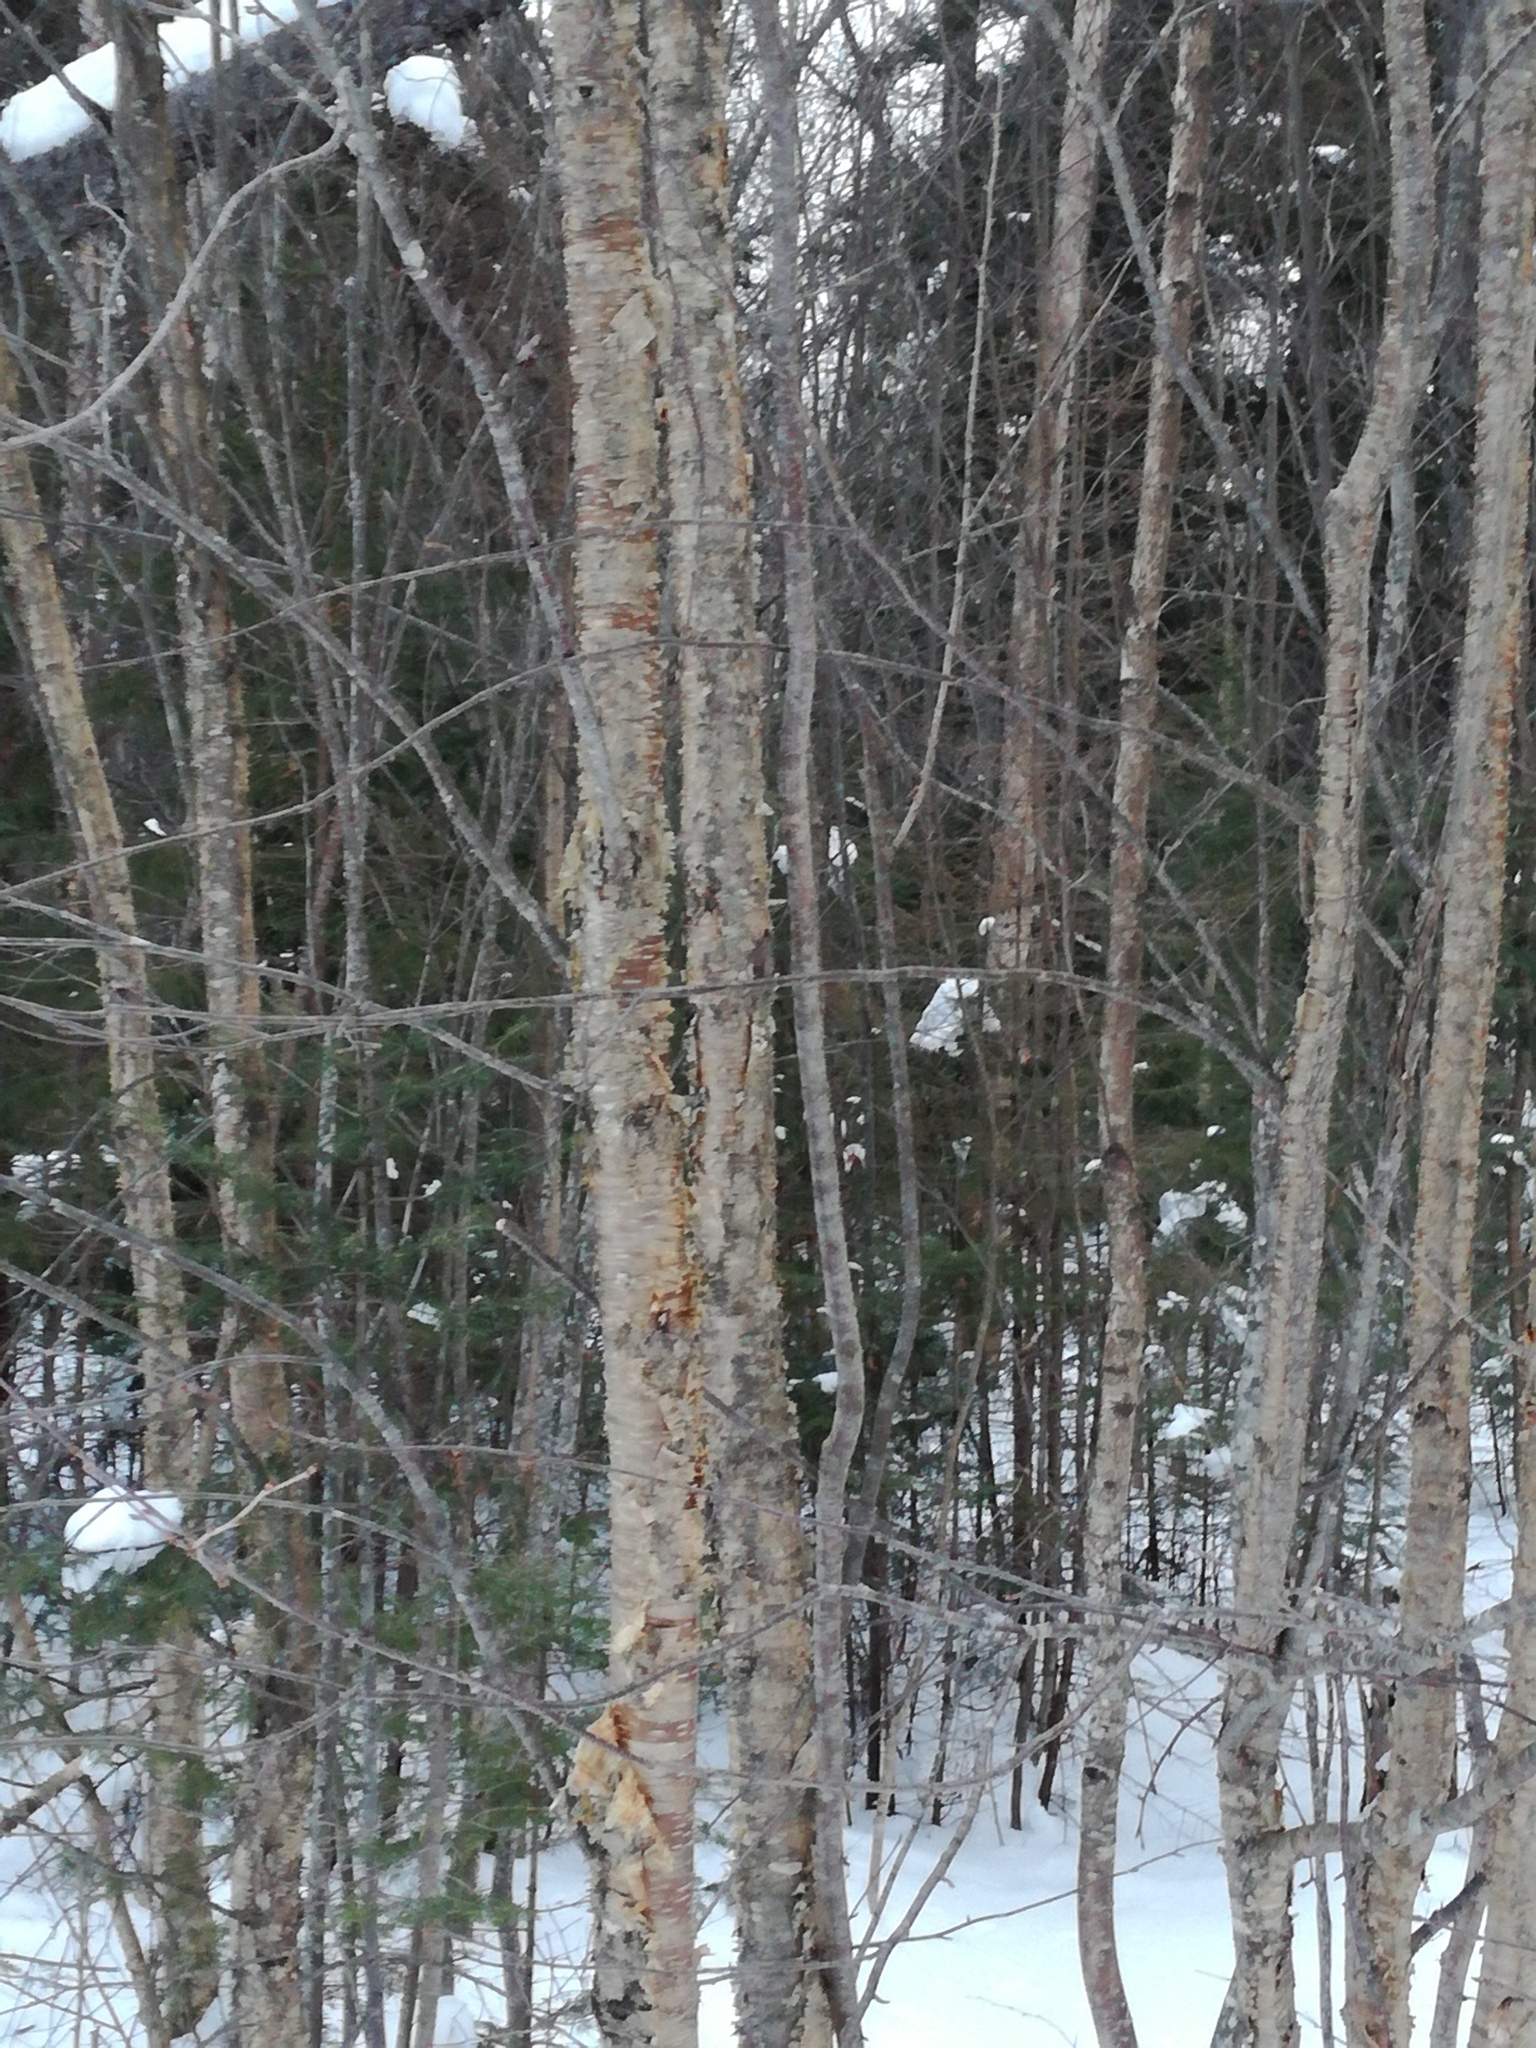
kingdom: Plantae
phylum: Tracheophyta
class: Magnoliopsida
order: Fagales
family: Betulaceae
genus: Betula
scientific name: Betula alleghaniensis
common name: Yellow birch
